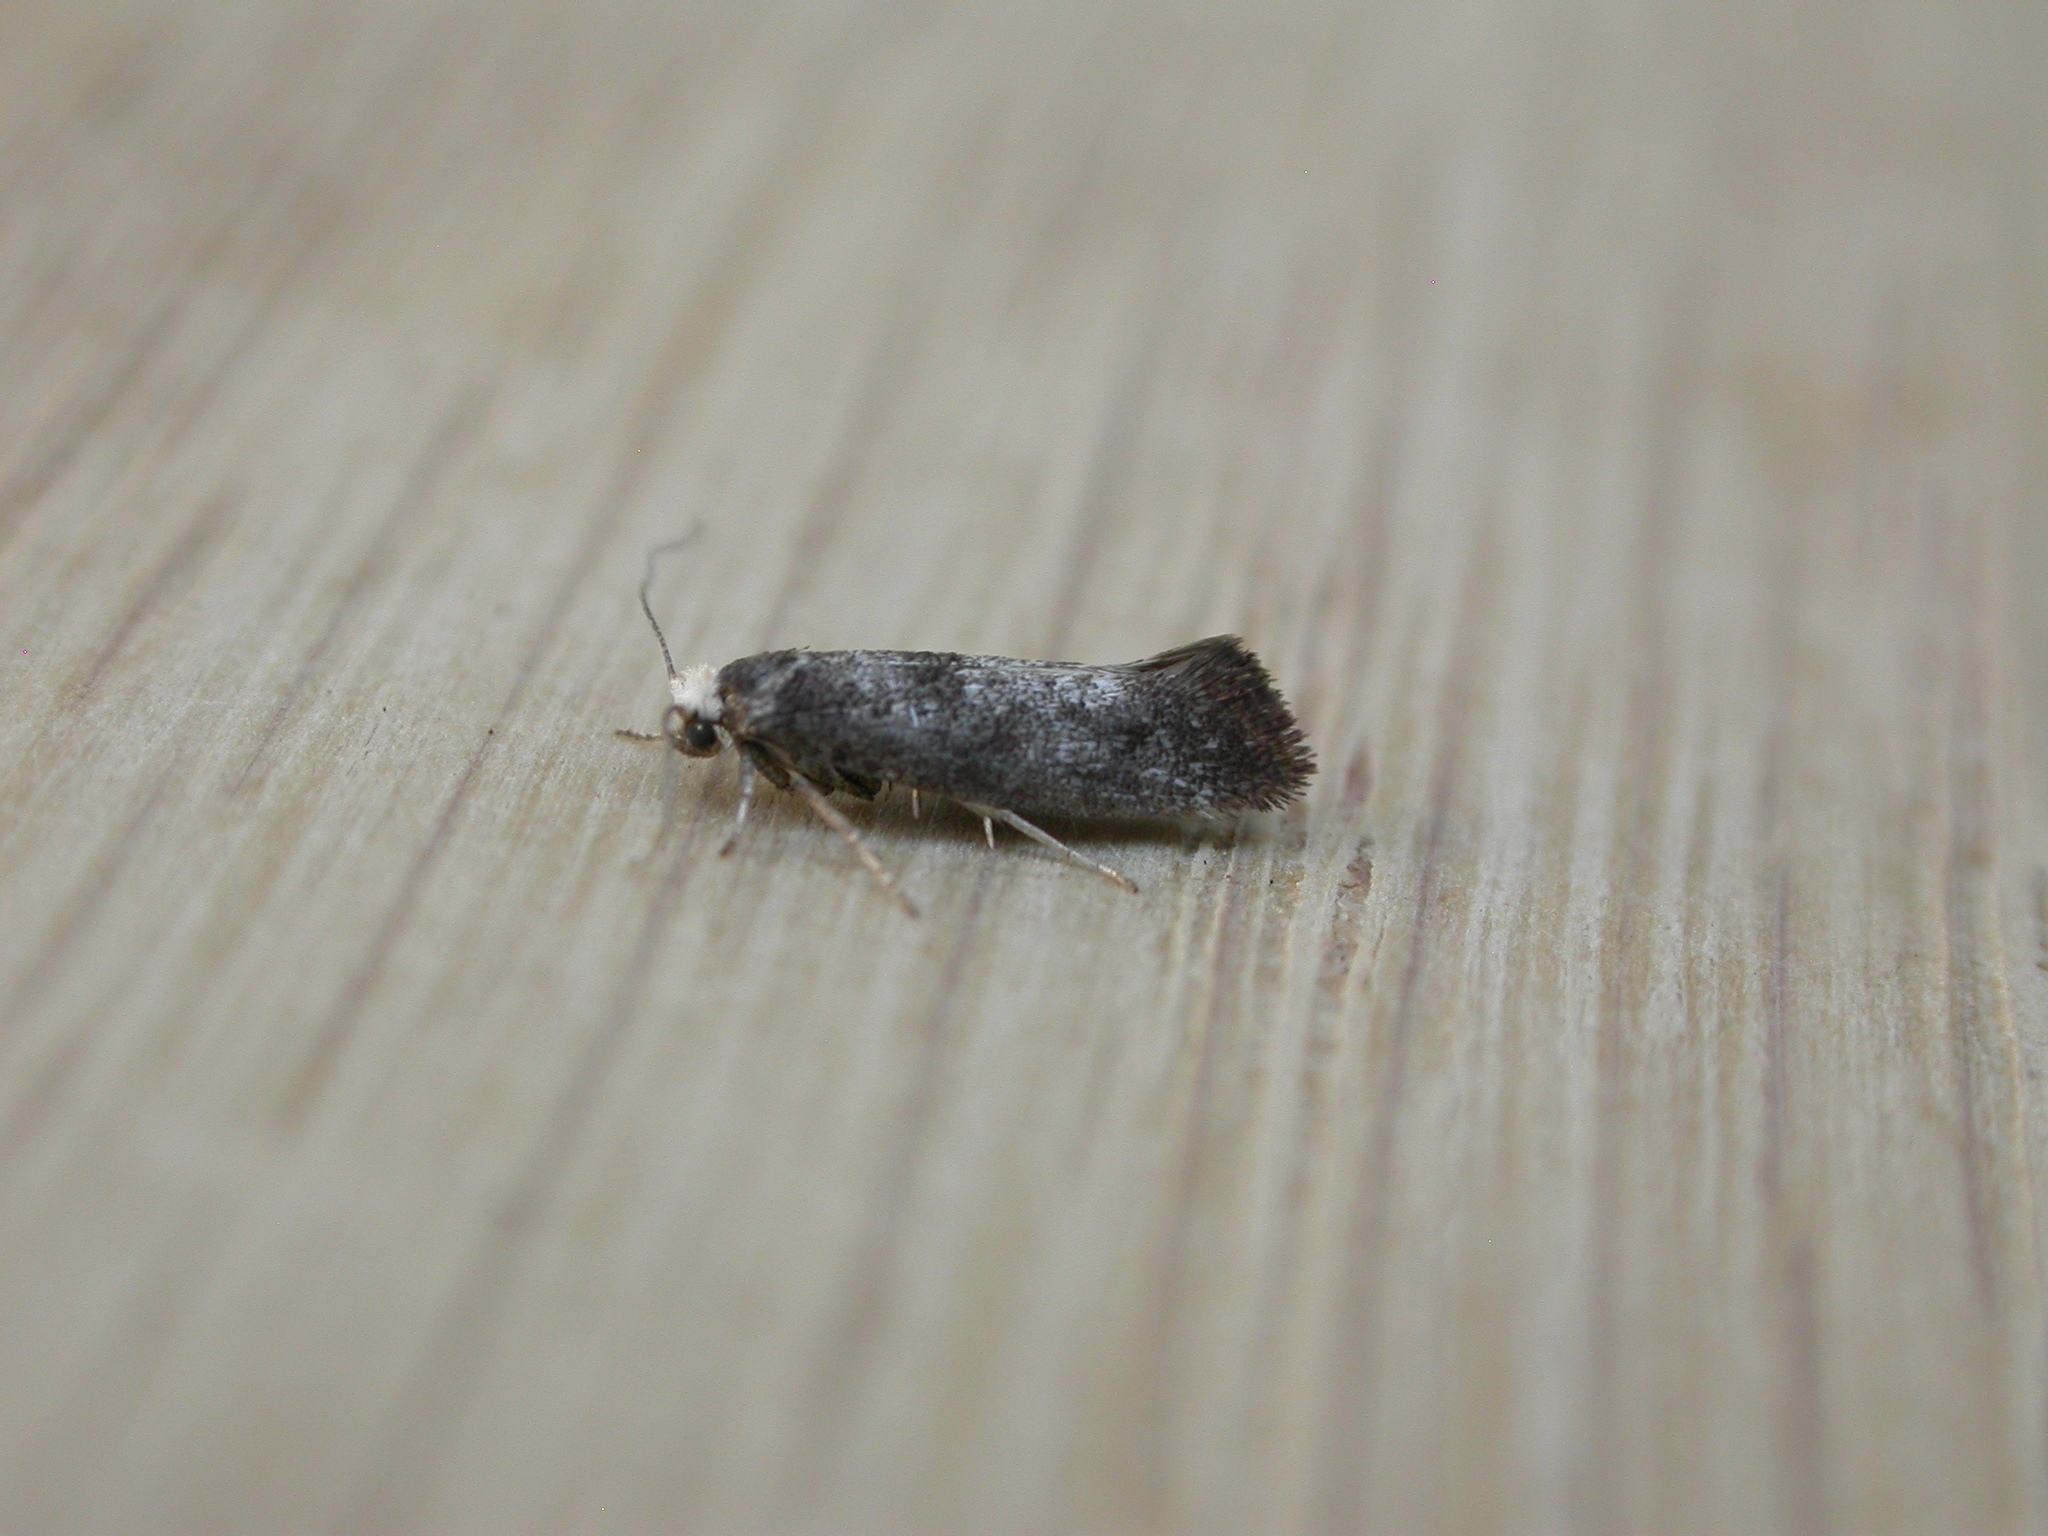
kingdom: Animalia
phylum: Arthropoda
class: Insecta
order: Lepidoptera
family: Yponomeutidae
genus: Swammerdamia
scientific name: Swammerdamia pyrella
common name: Little ermine moth
